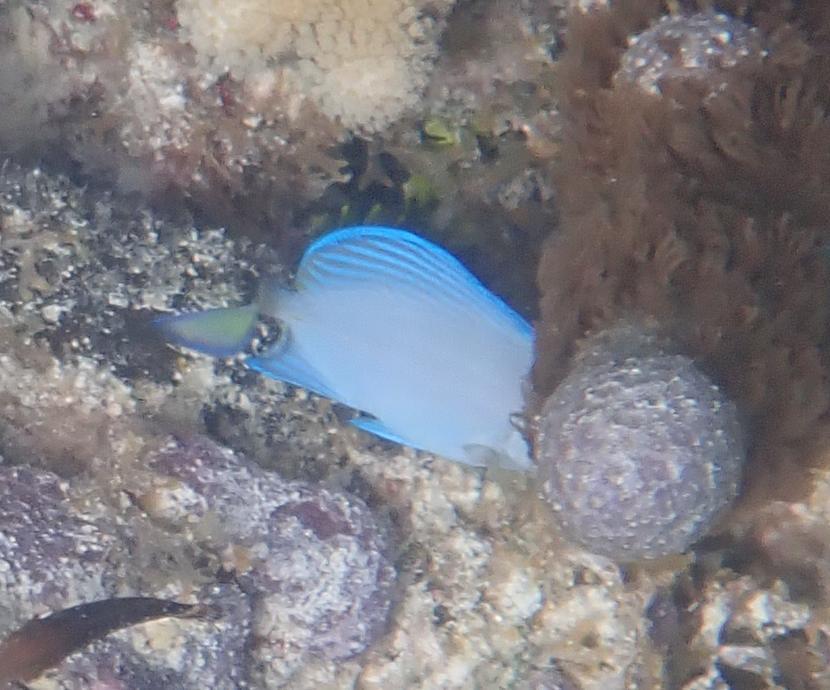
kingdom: Animalia
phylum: Chordata
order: Perciformes
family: Acanthuridae
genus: Acanthurus
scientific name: Acanthurus coeruleus
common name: Blue tang
